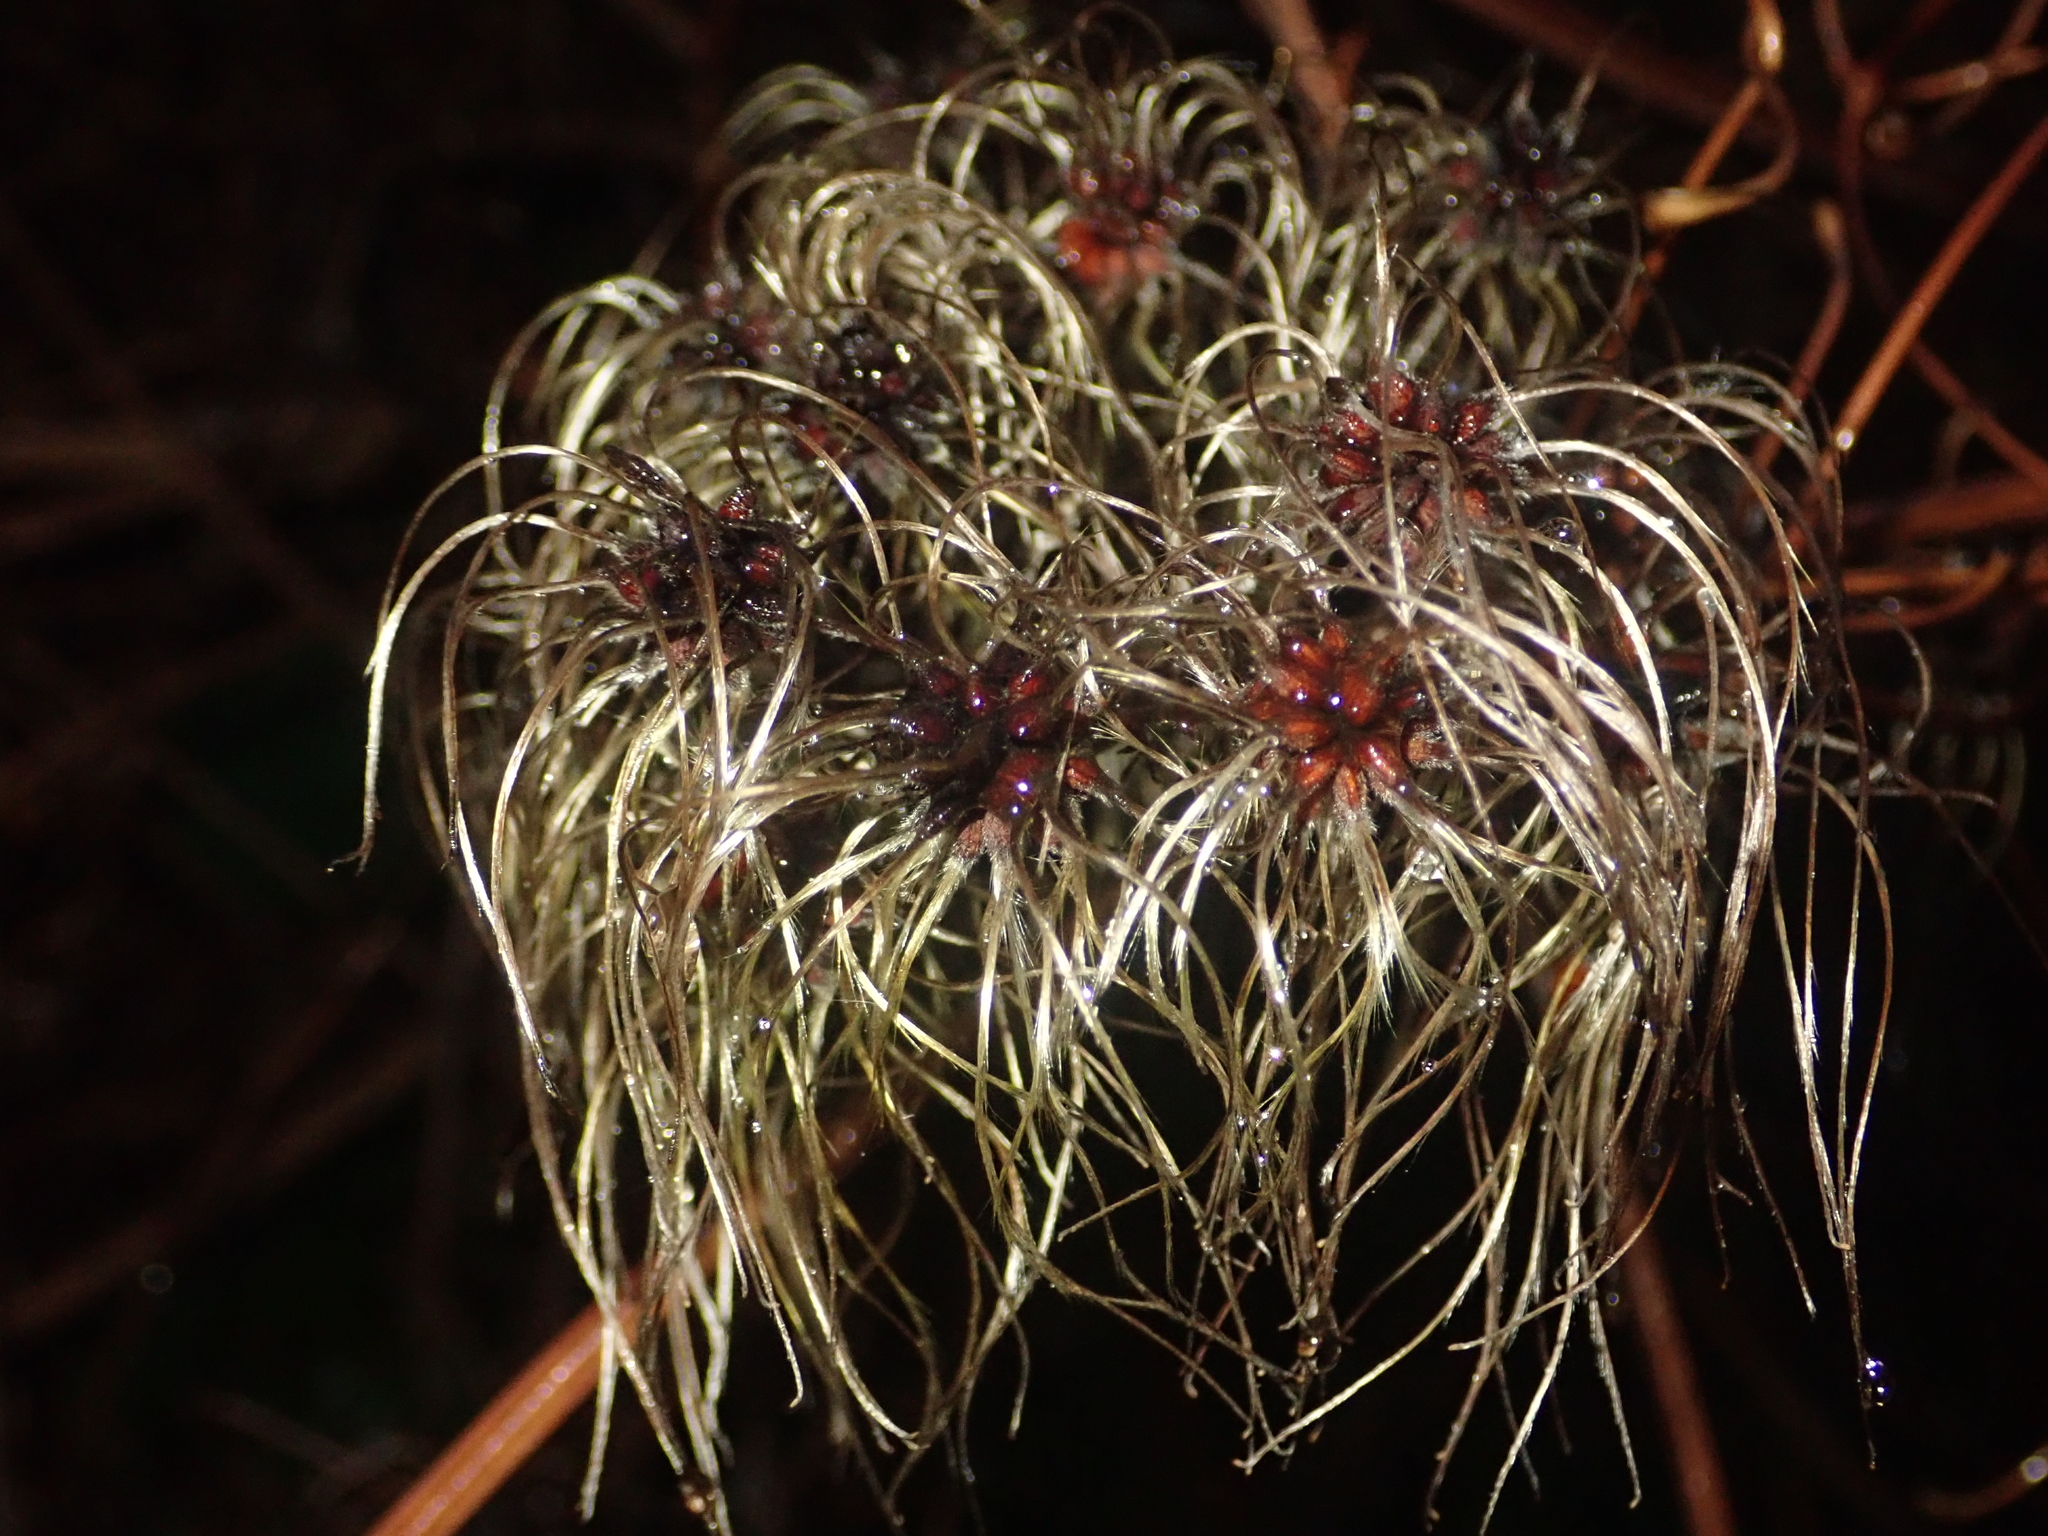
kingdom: Plantae
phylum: Tracheophyta
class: Magnoliopsida
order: Ranunculales
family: Ranunculaceae
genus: Clematis
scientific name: Clematis vitalba
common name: Evergreen clematis
